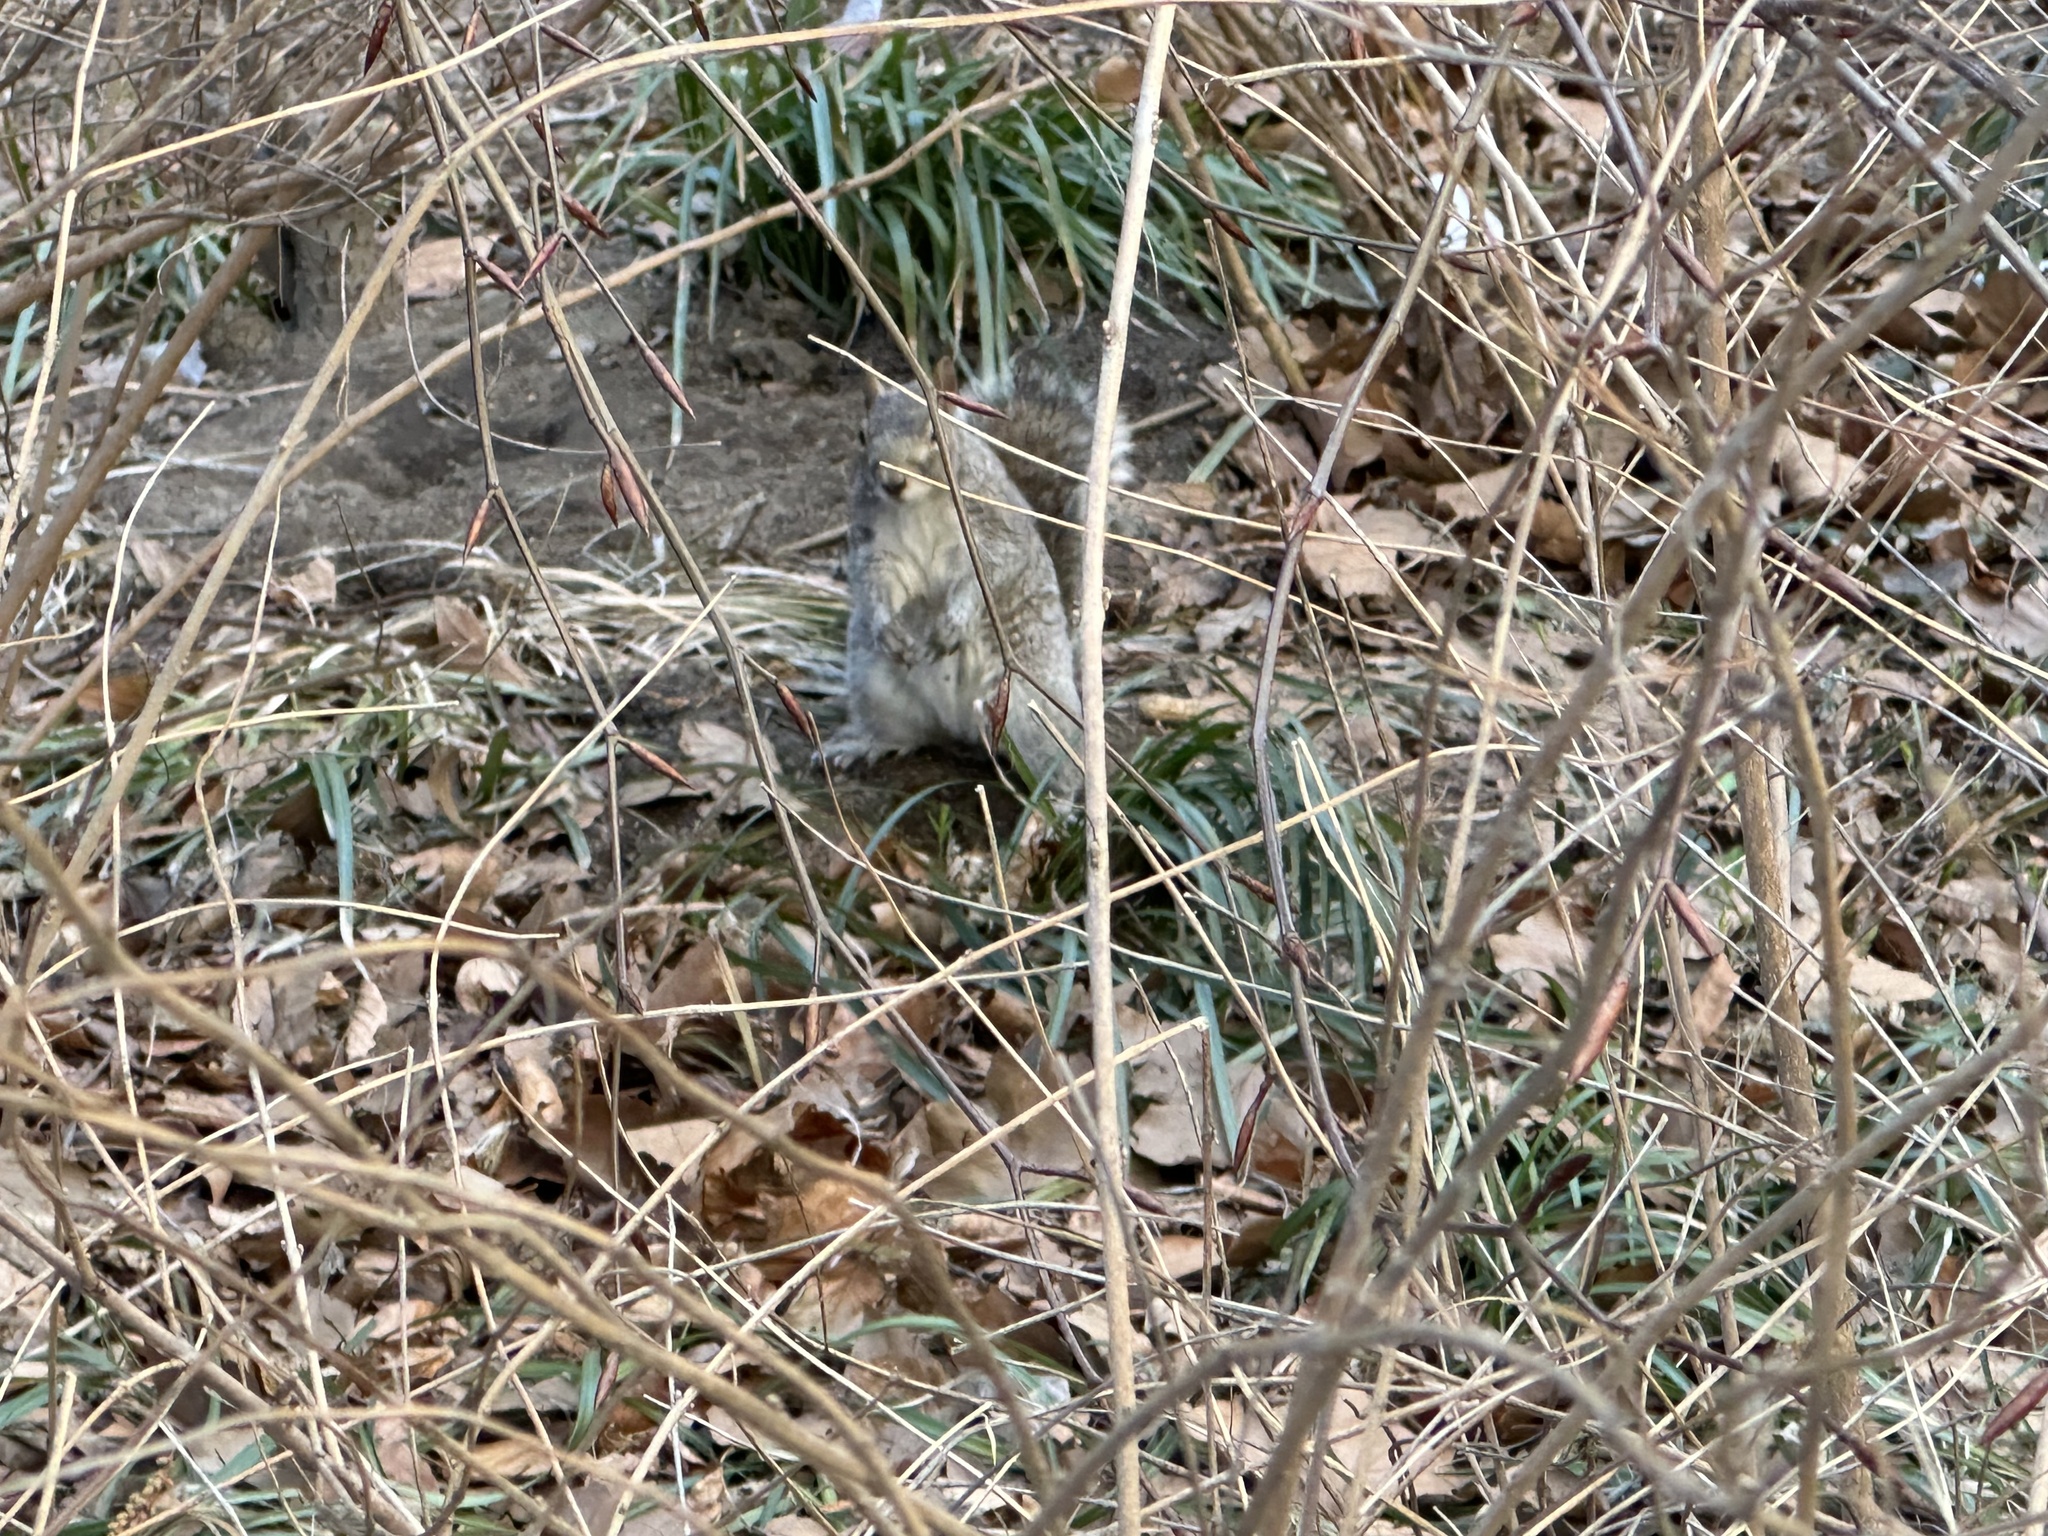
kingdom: Animalia
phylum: Chordata
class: Mammalia
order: Rodentia
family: Sciuridae
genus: Sciurus
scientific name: Sciurus carolinensis
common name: Eastern gray squirrel
